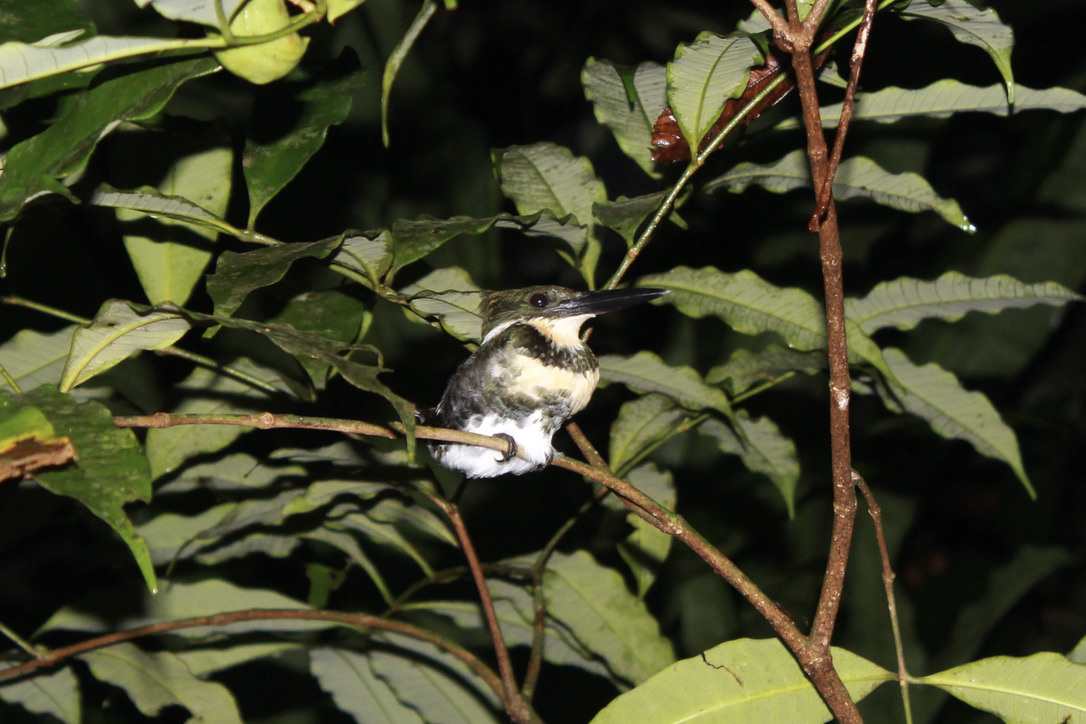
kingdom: Animalia
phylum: Chordata
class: Aves
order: Coraciiformes
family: Alcedinidae
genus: Chloroceryle
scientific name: Chloroceryle americana
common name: Green kingfisher
